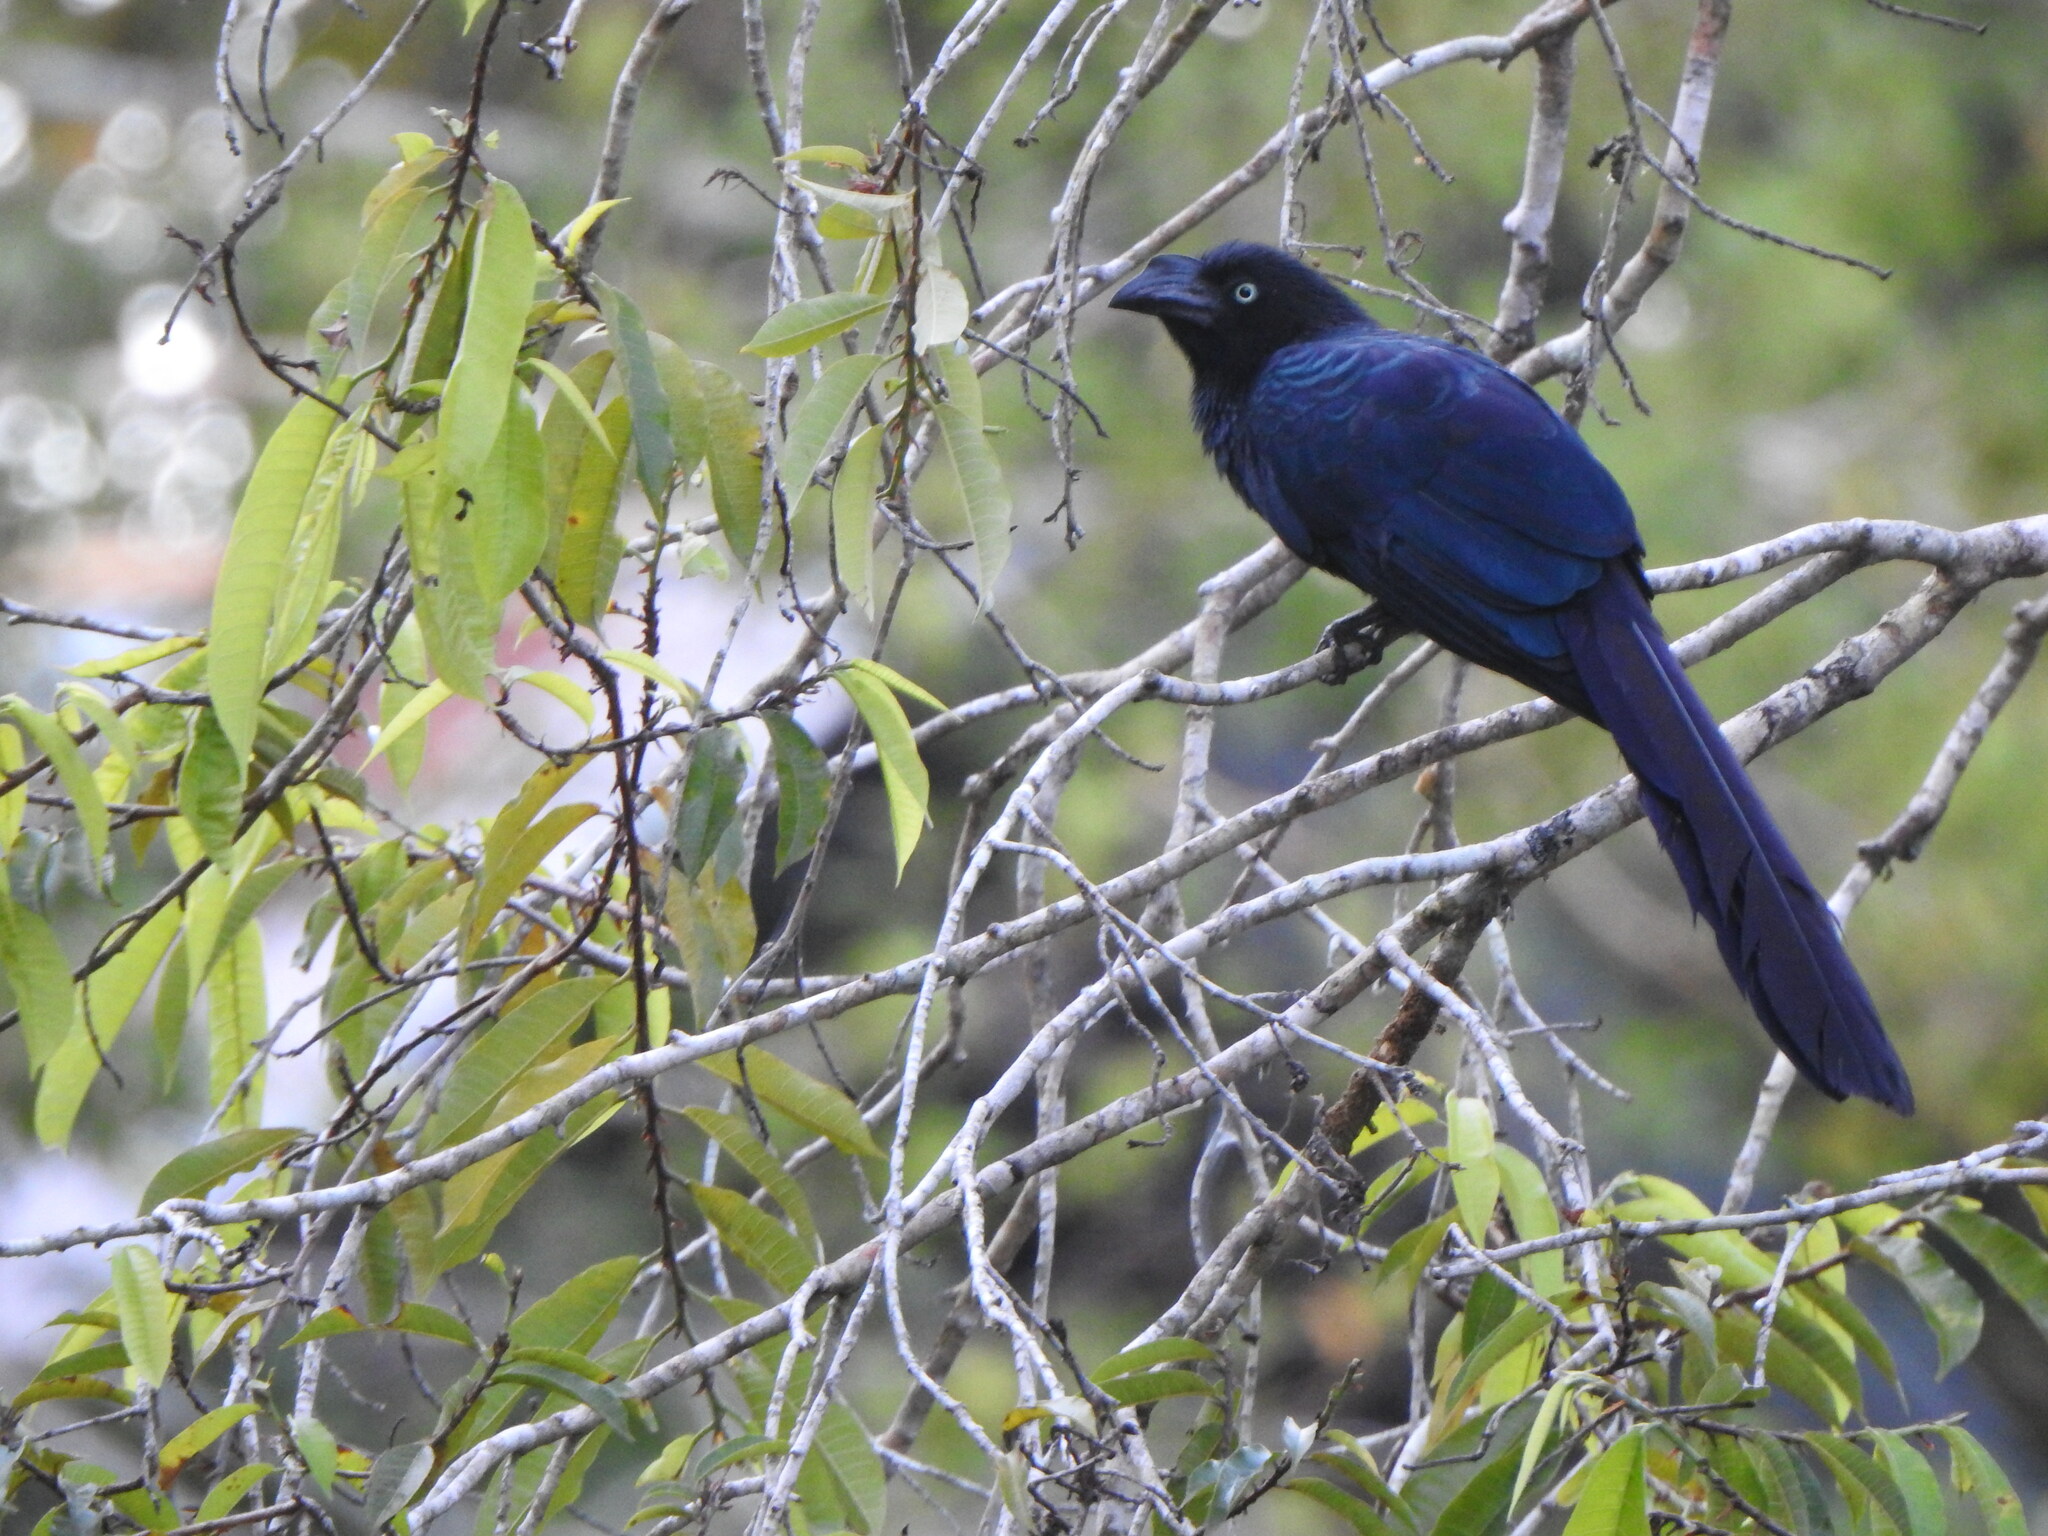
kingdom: Animalia
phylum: Chordata
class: Aves
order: Cuculiformes
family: Cuculidae
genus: Crotophaga
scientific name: Crotophaga major
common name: Greater ani
